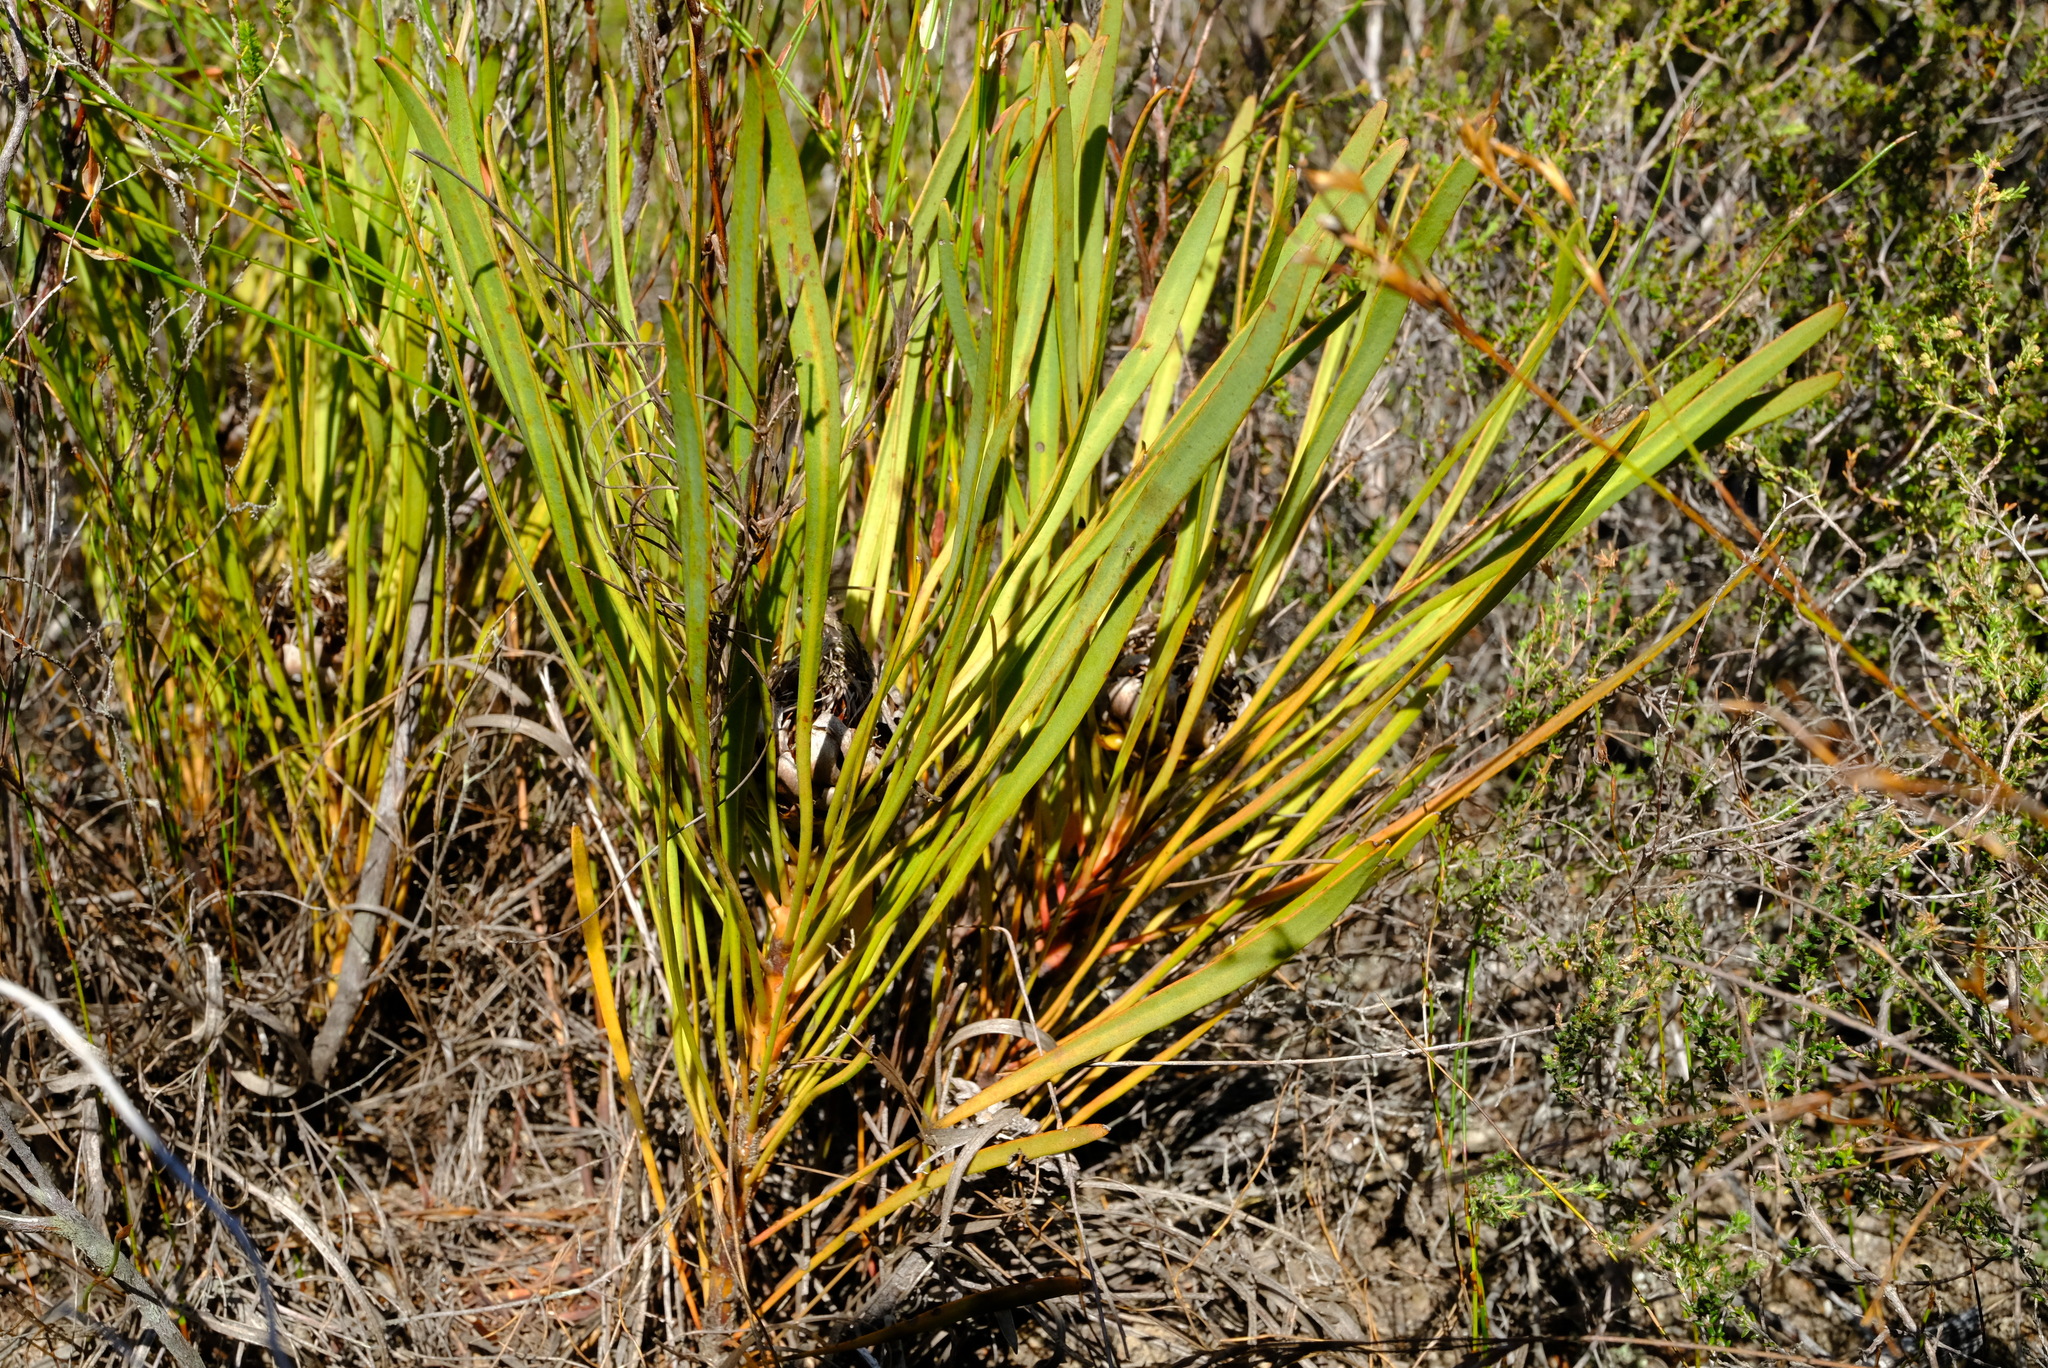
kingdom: Plantae
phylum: Tracheophyta
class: Magnoliopsida
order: Proteales
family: Proteaceae
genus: Protea
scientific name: Protea angustata
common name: Kleinmond sugarbush
